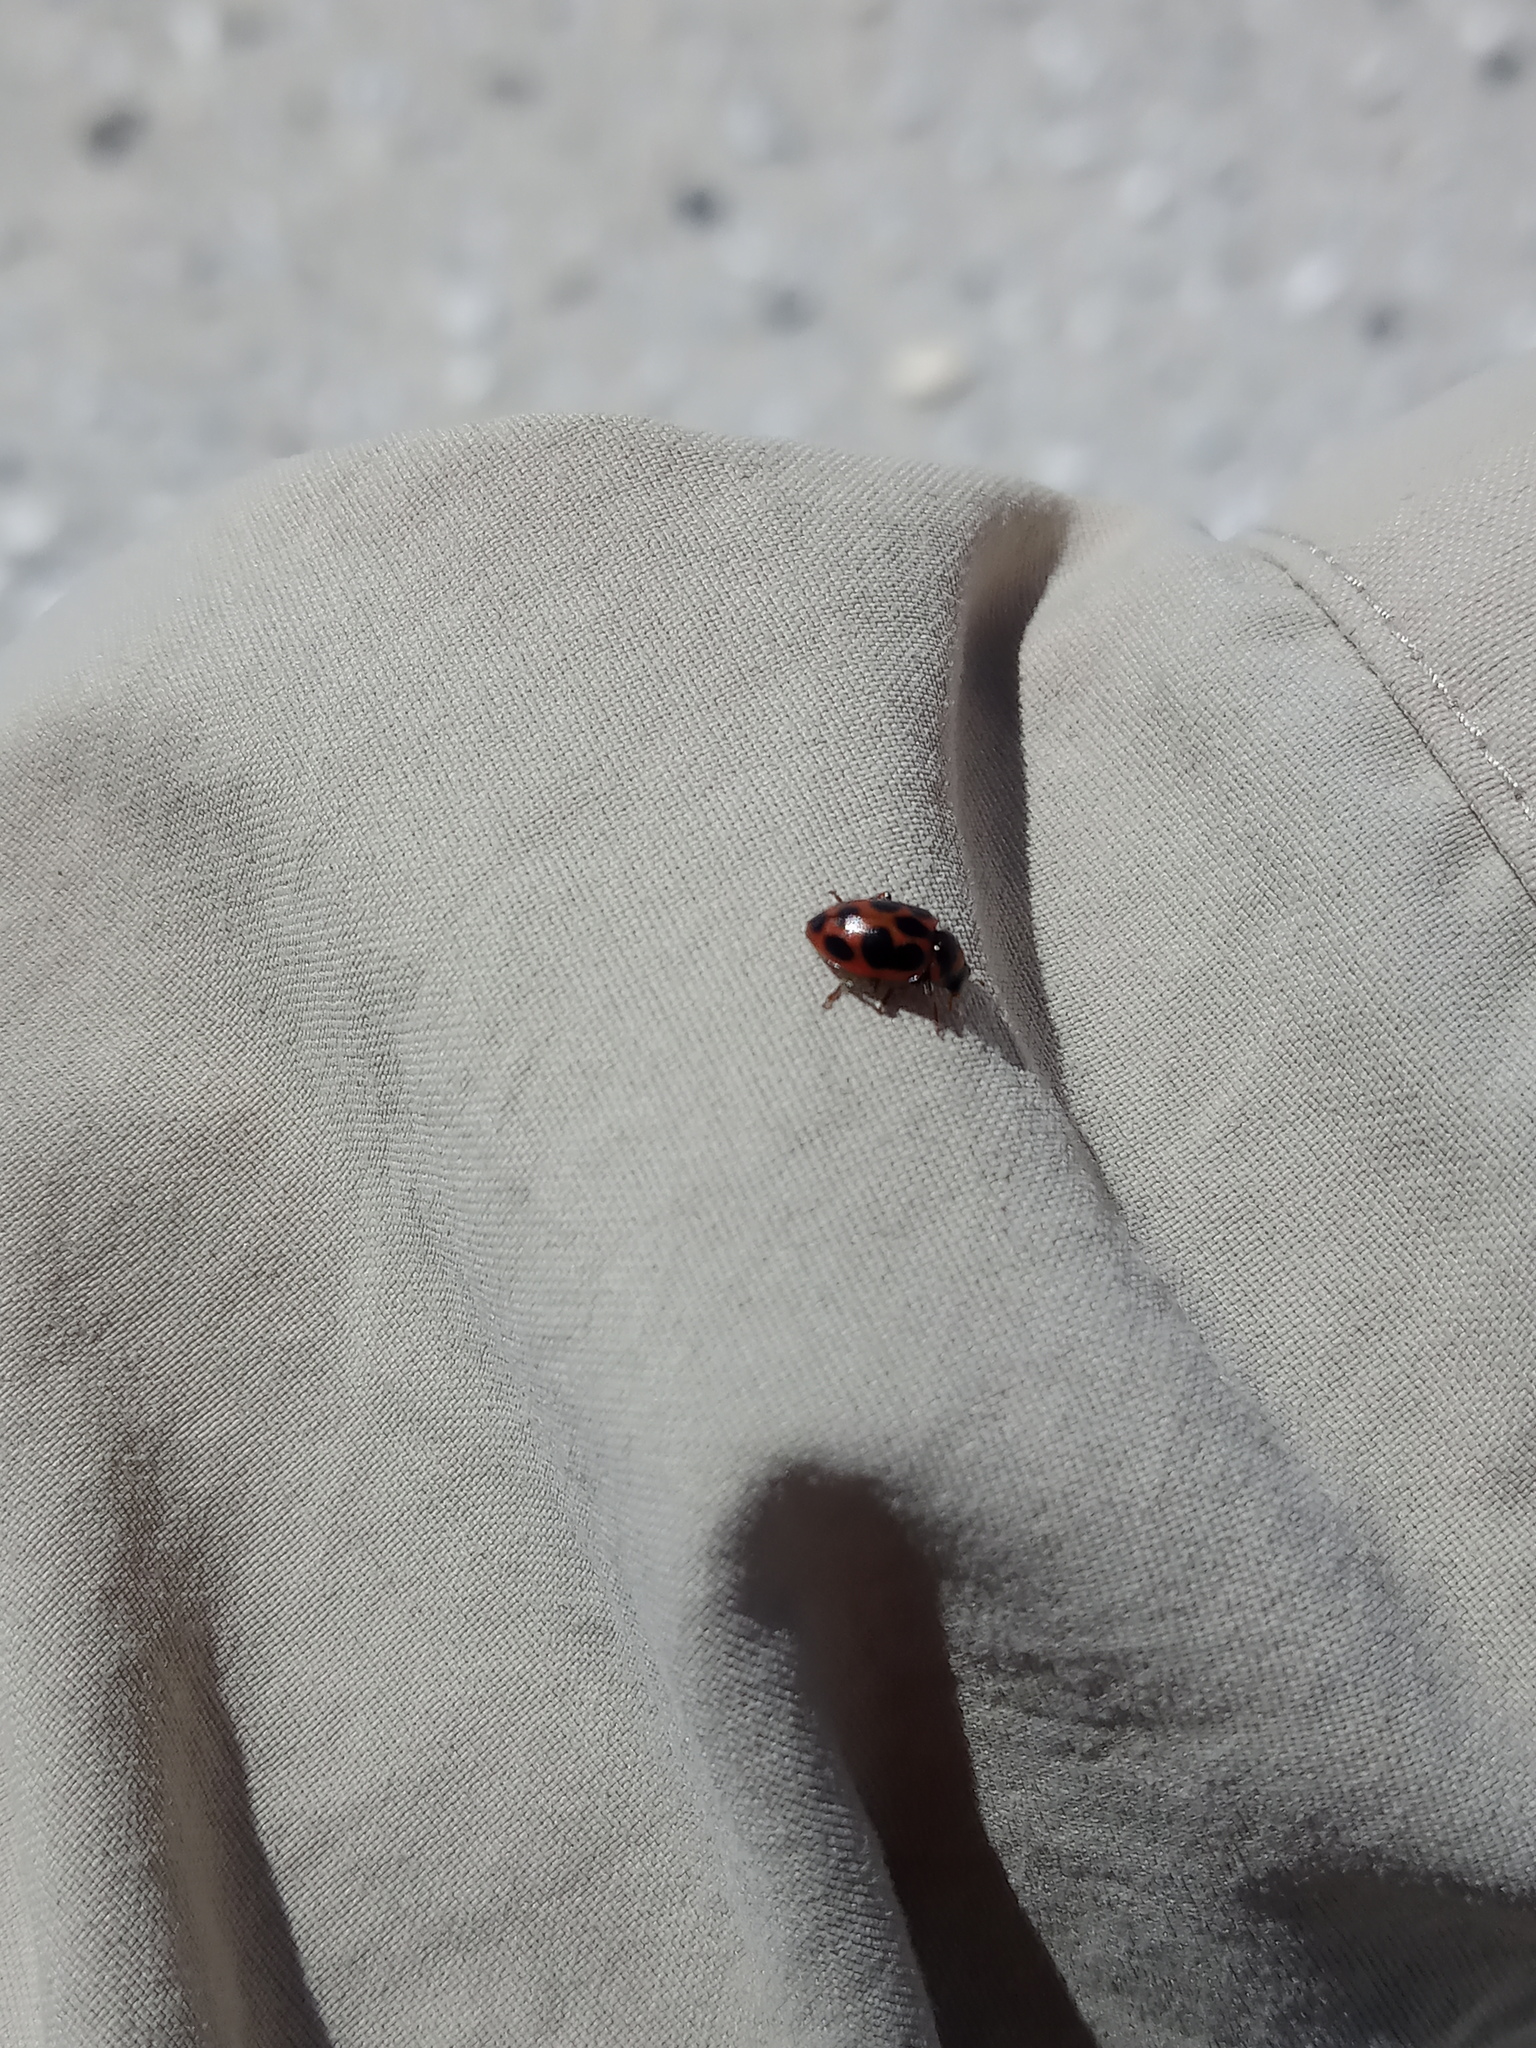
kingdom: Animalia
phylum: Arthropoda
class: Insecta
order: Coleoptera
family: Coccinellidae
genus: Naemia
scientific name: Naemia seriata
